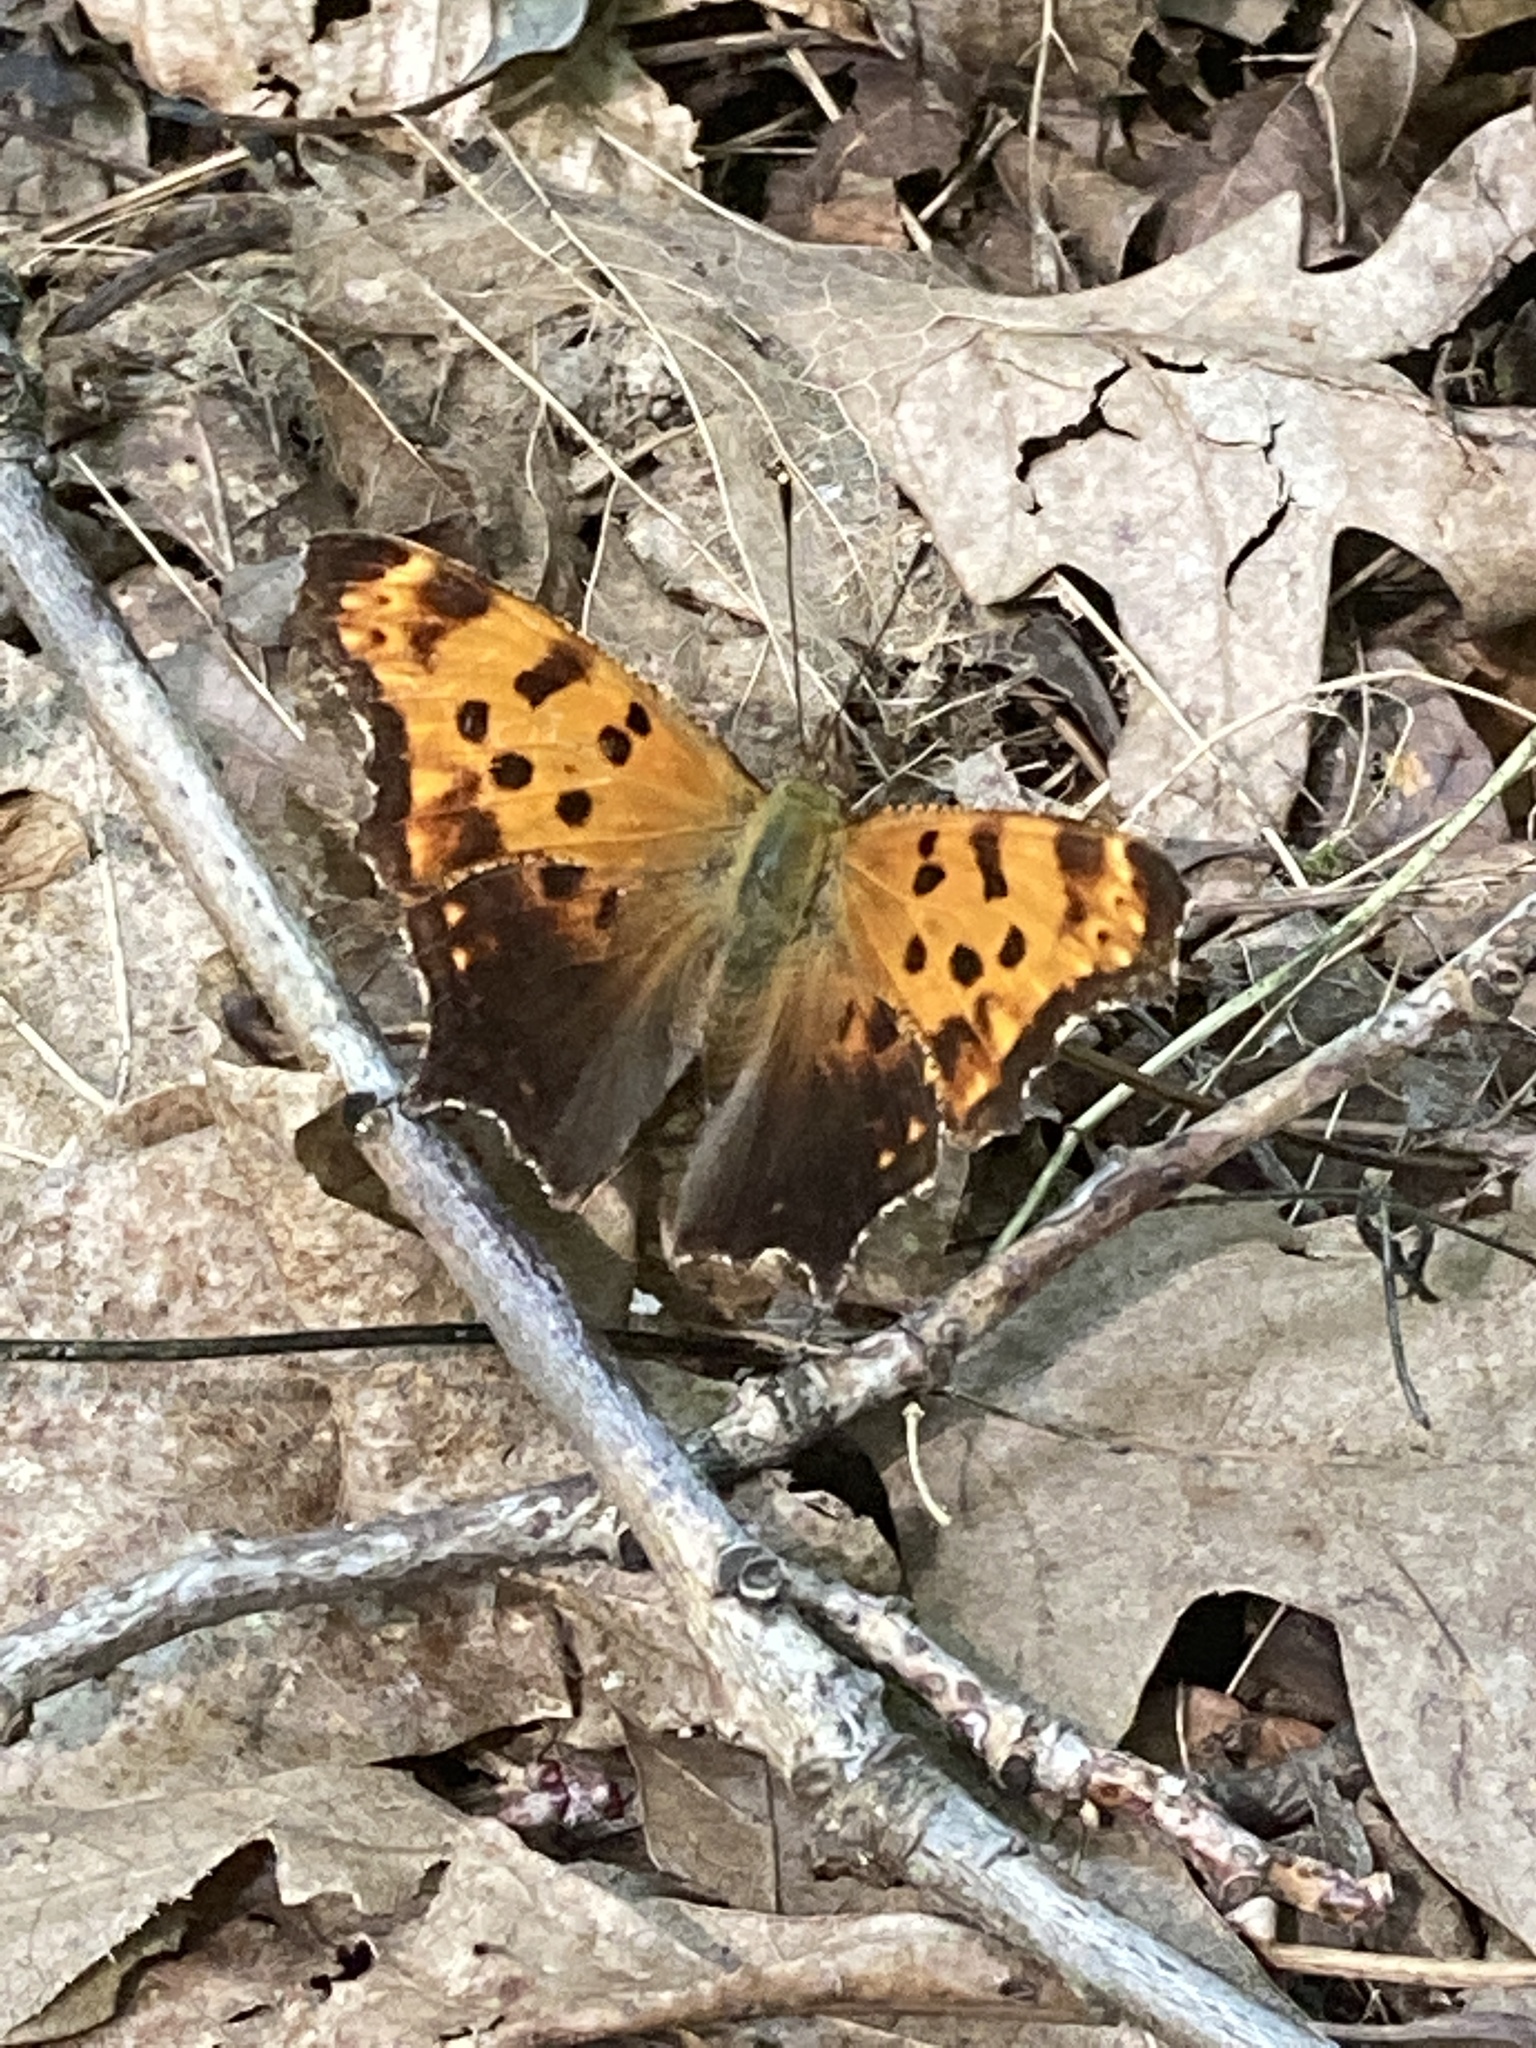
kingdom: Animalia
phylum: Arthropoda
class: Insecta
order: Lepidoptera
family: Nymphalidae
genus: Polygonia
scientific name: Polygonia comma
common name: Eastern comma
